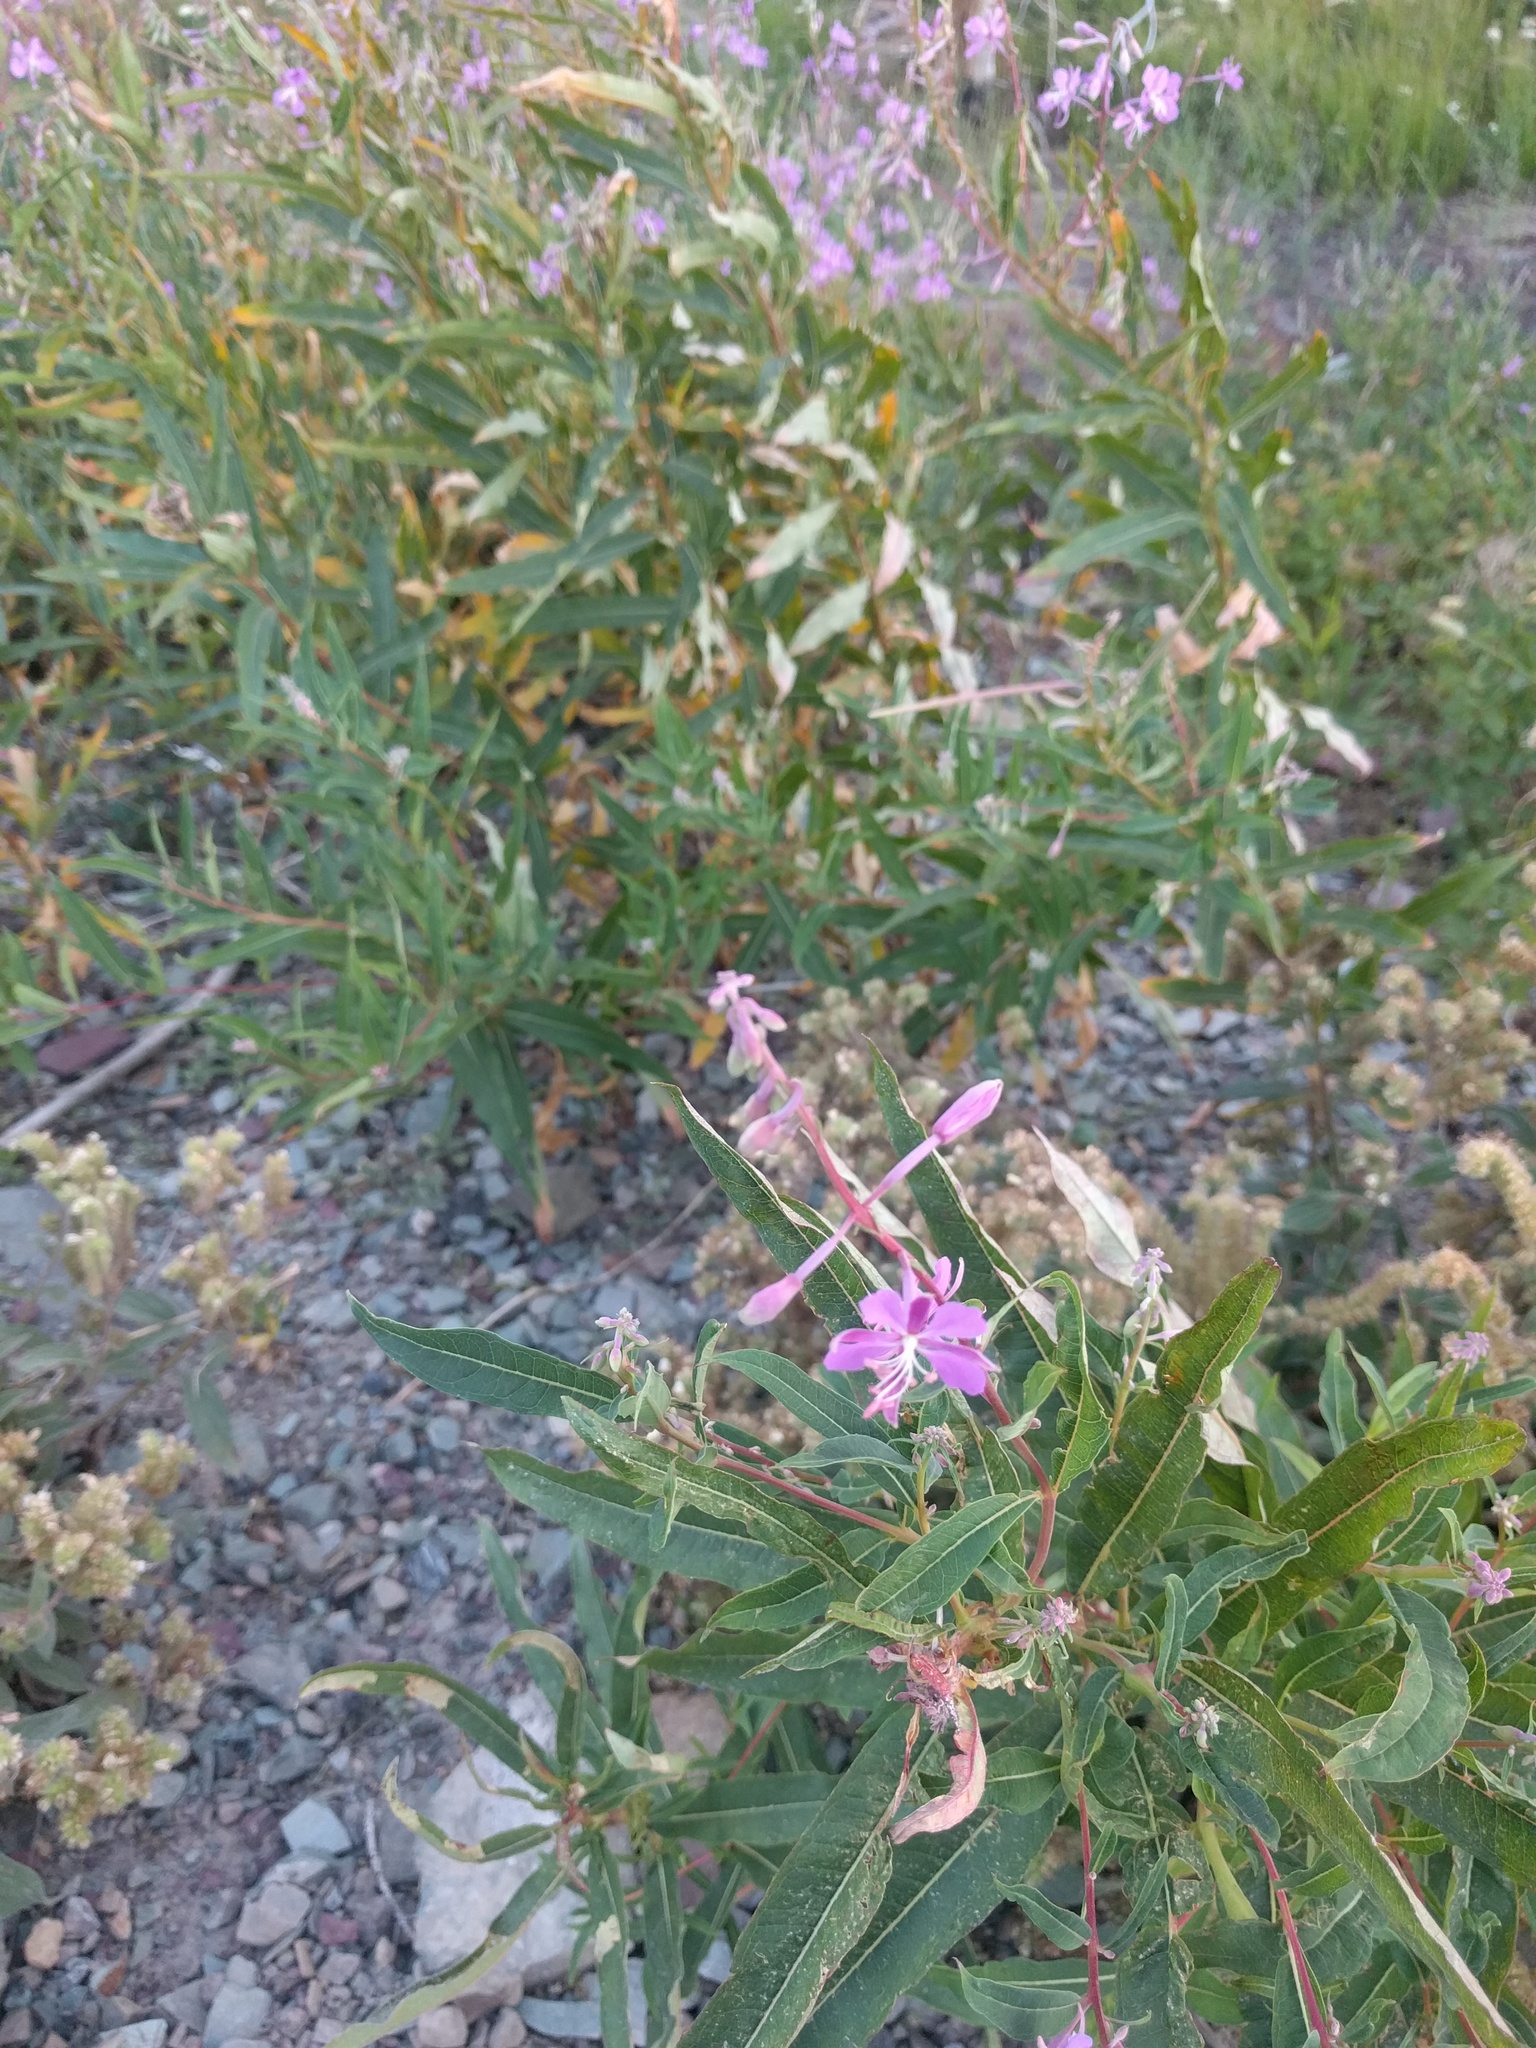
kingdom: Plantae
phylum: Tracheophyta
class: Magnoliopsida
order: Myrtales
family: Onagraceae
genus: Chamaenerion
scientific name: Chamaenerion angustifolium
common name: Fireweed
